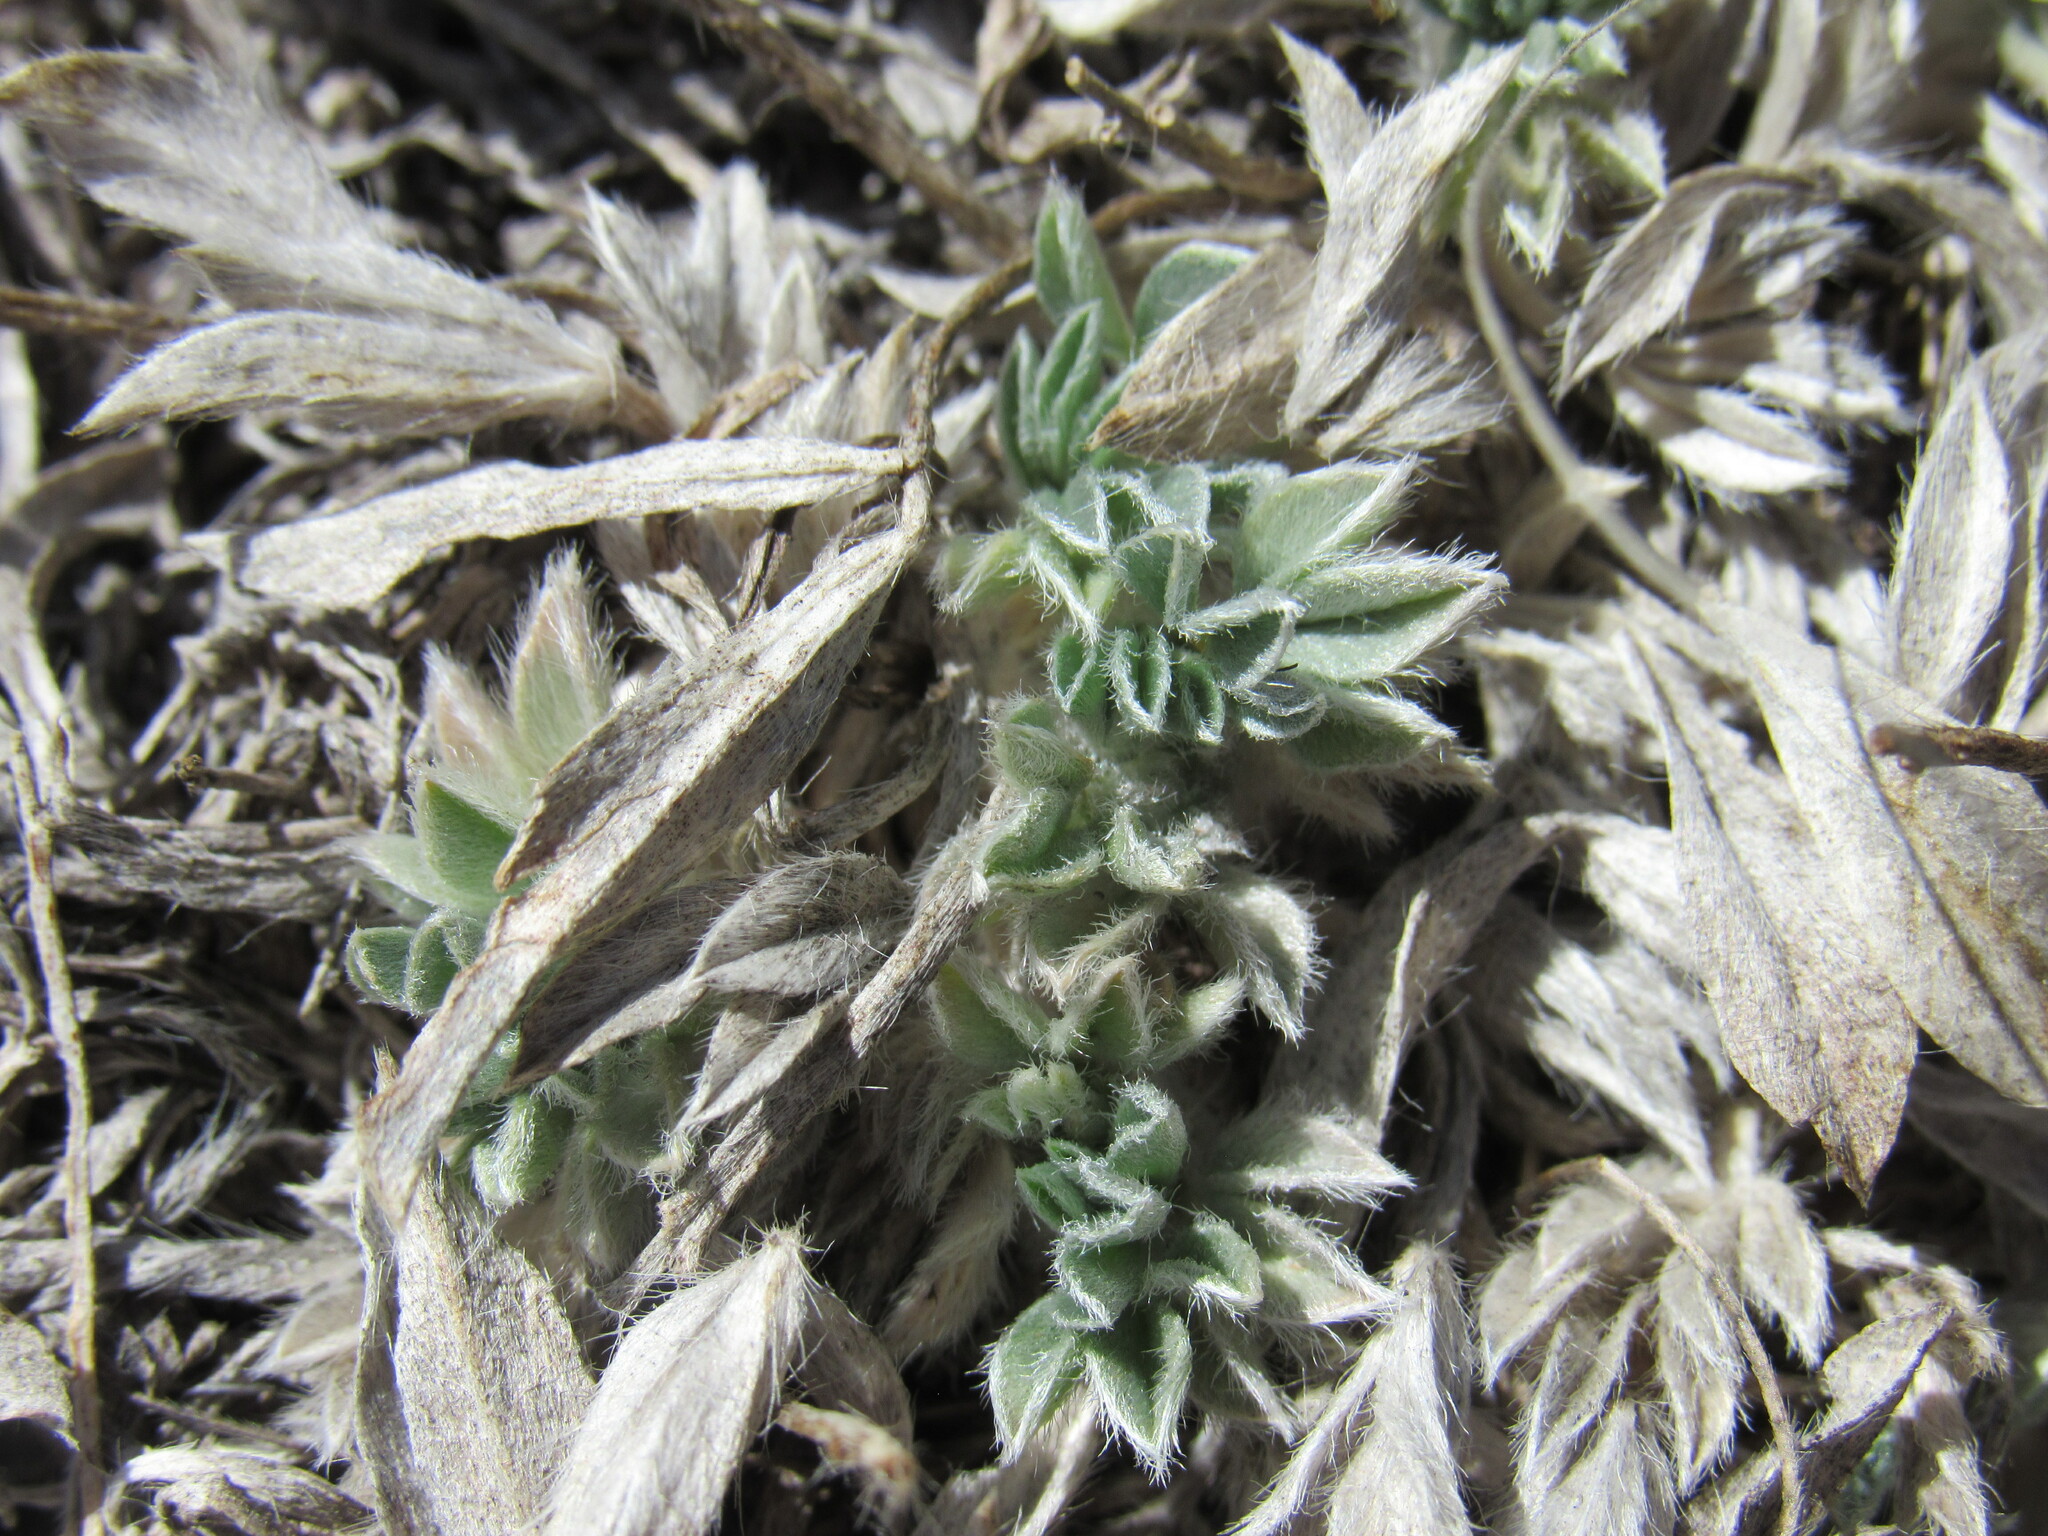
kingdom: Plantae
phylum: Tracheophyta
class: Magnoliopsida
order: Fabales
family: Fabaceae
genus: Astragalus
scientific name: Astragalus tridactylicus
